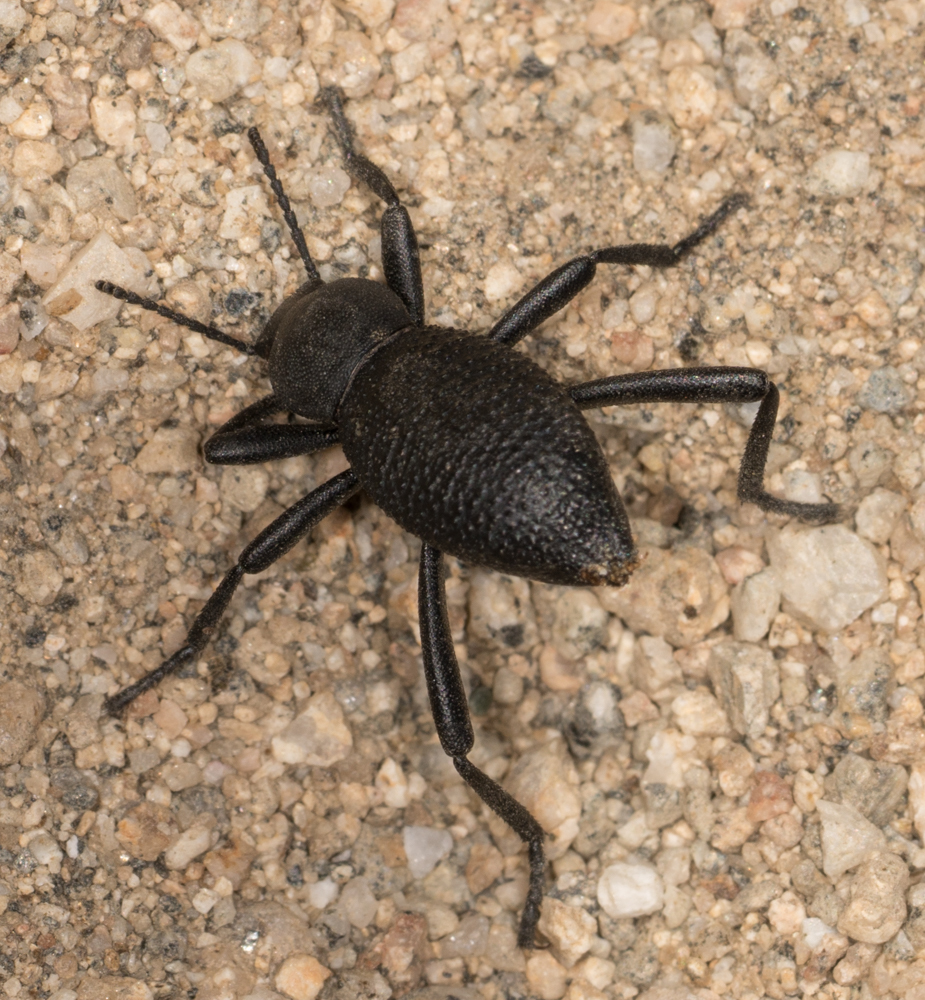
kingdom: Animalia
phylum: Arthropoda
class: Insecta
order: Coleoptera
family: Tenebrionidae
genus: Eleodes
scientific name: Eleodes granosa
